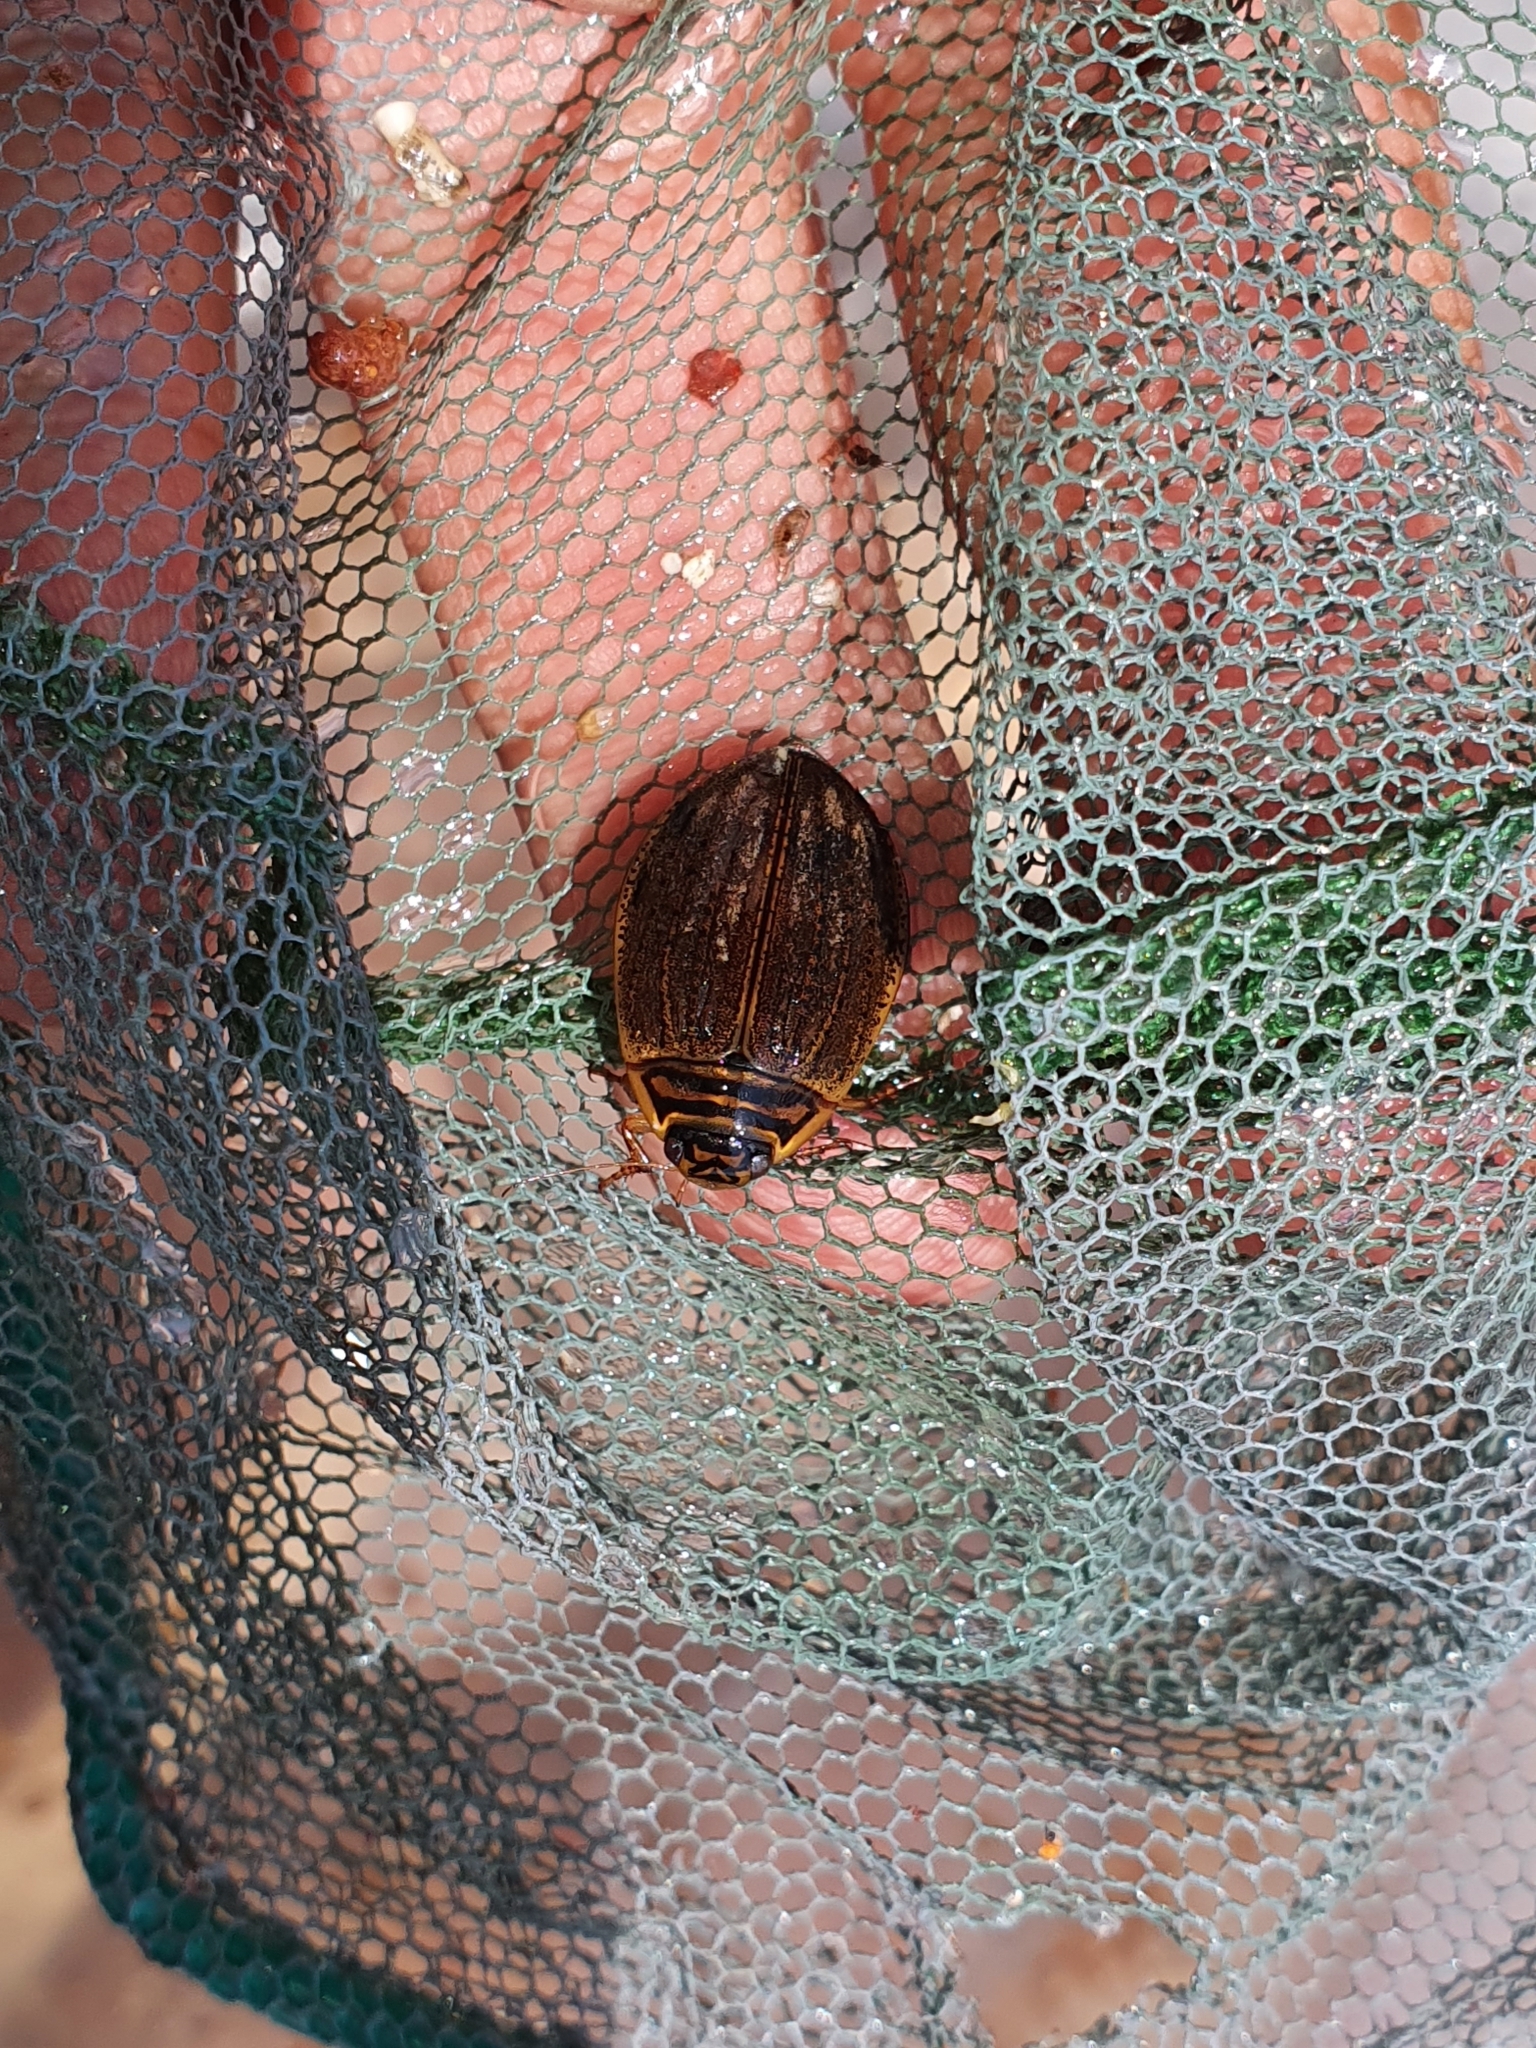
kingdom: Animalia
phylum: Arthropoda
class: Insecta
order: Coleoptera
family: Dytiscidae
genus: Acilius
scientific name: Acilius sulcatus
